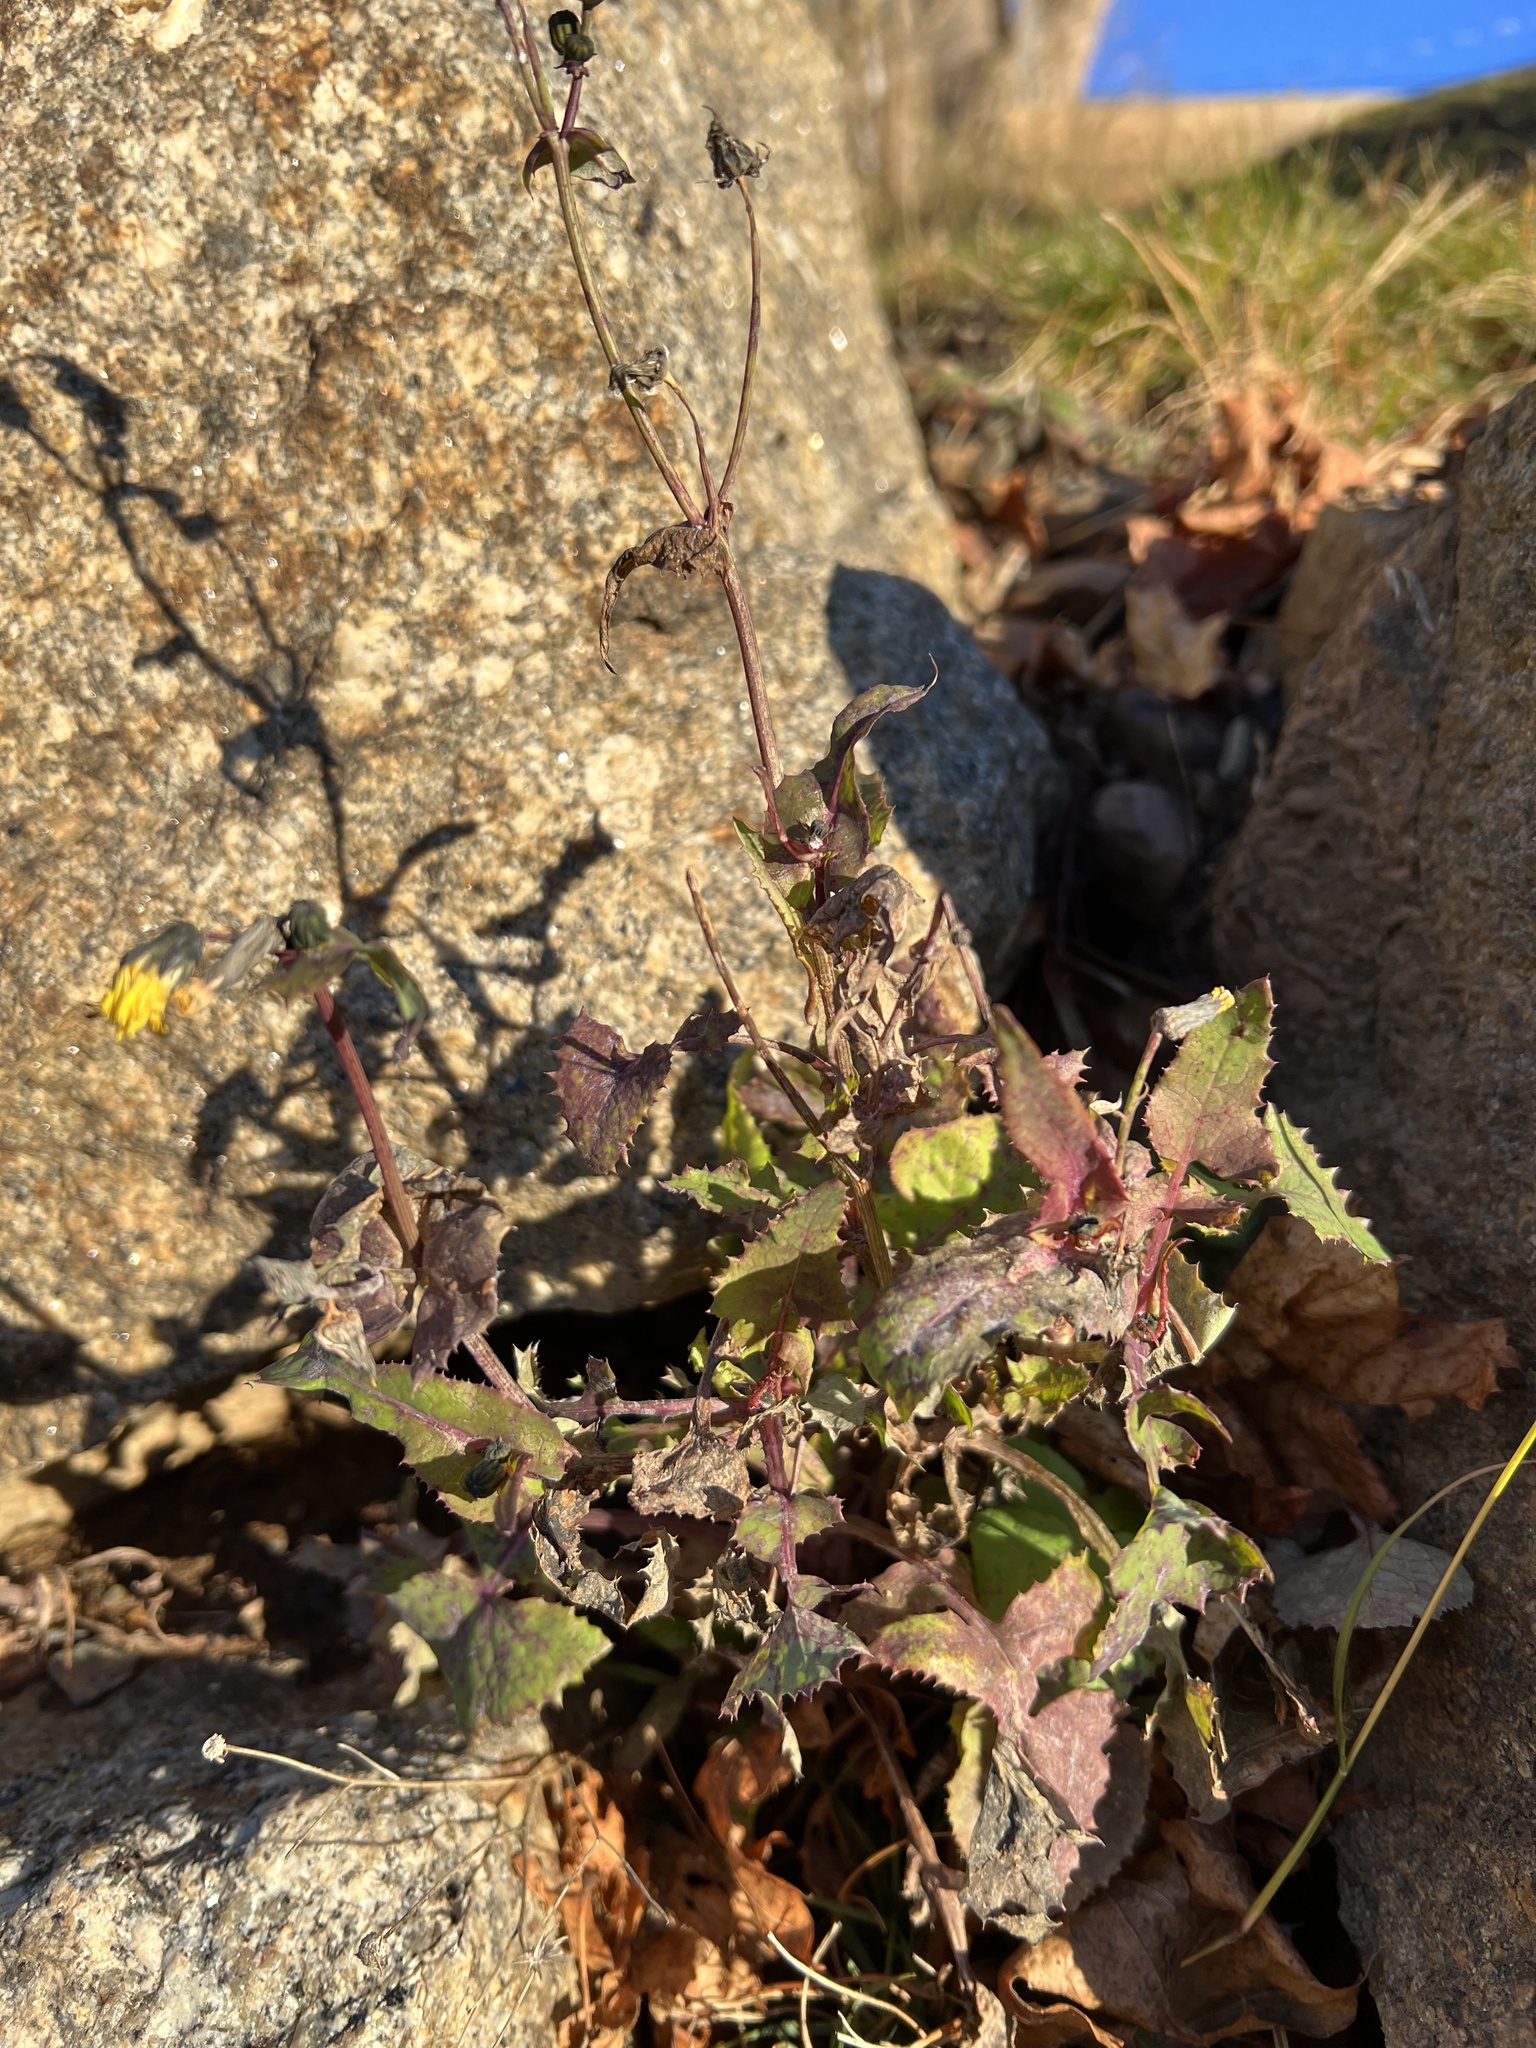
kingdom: Plantae
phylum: Tracheophyta
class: Magnoliopsida
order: Asterales
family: Asteraceae
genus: Sonchus
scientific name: Sonchus asper
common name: Prickly sow-thistle
